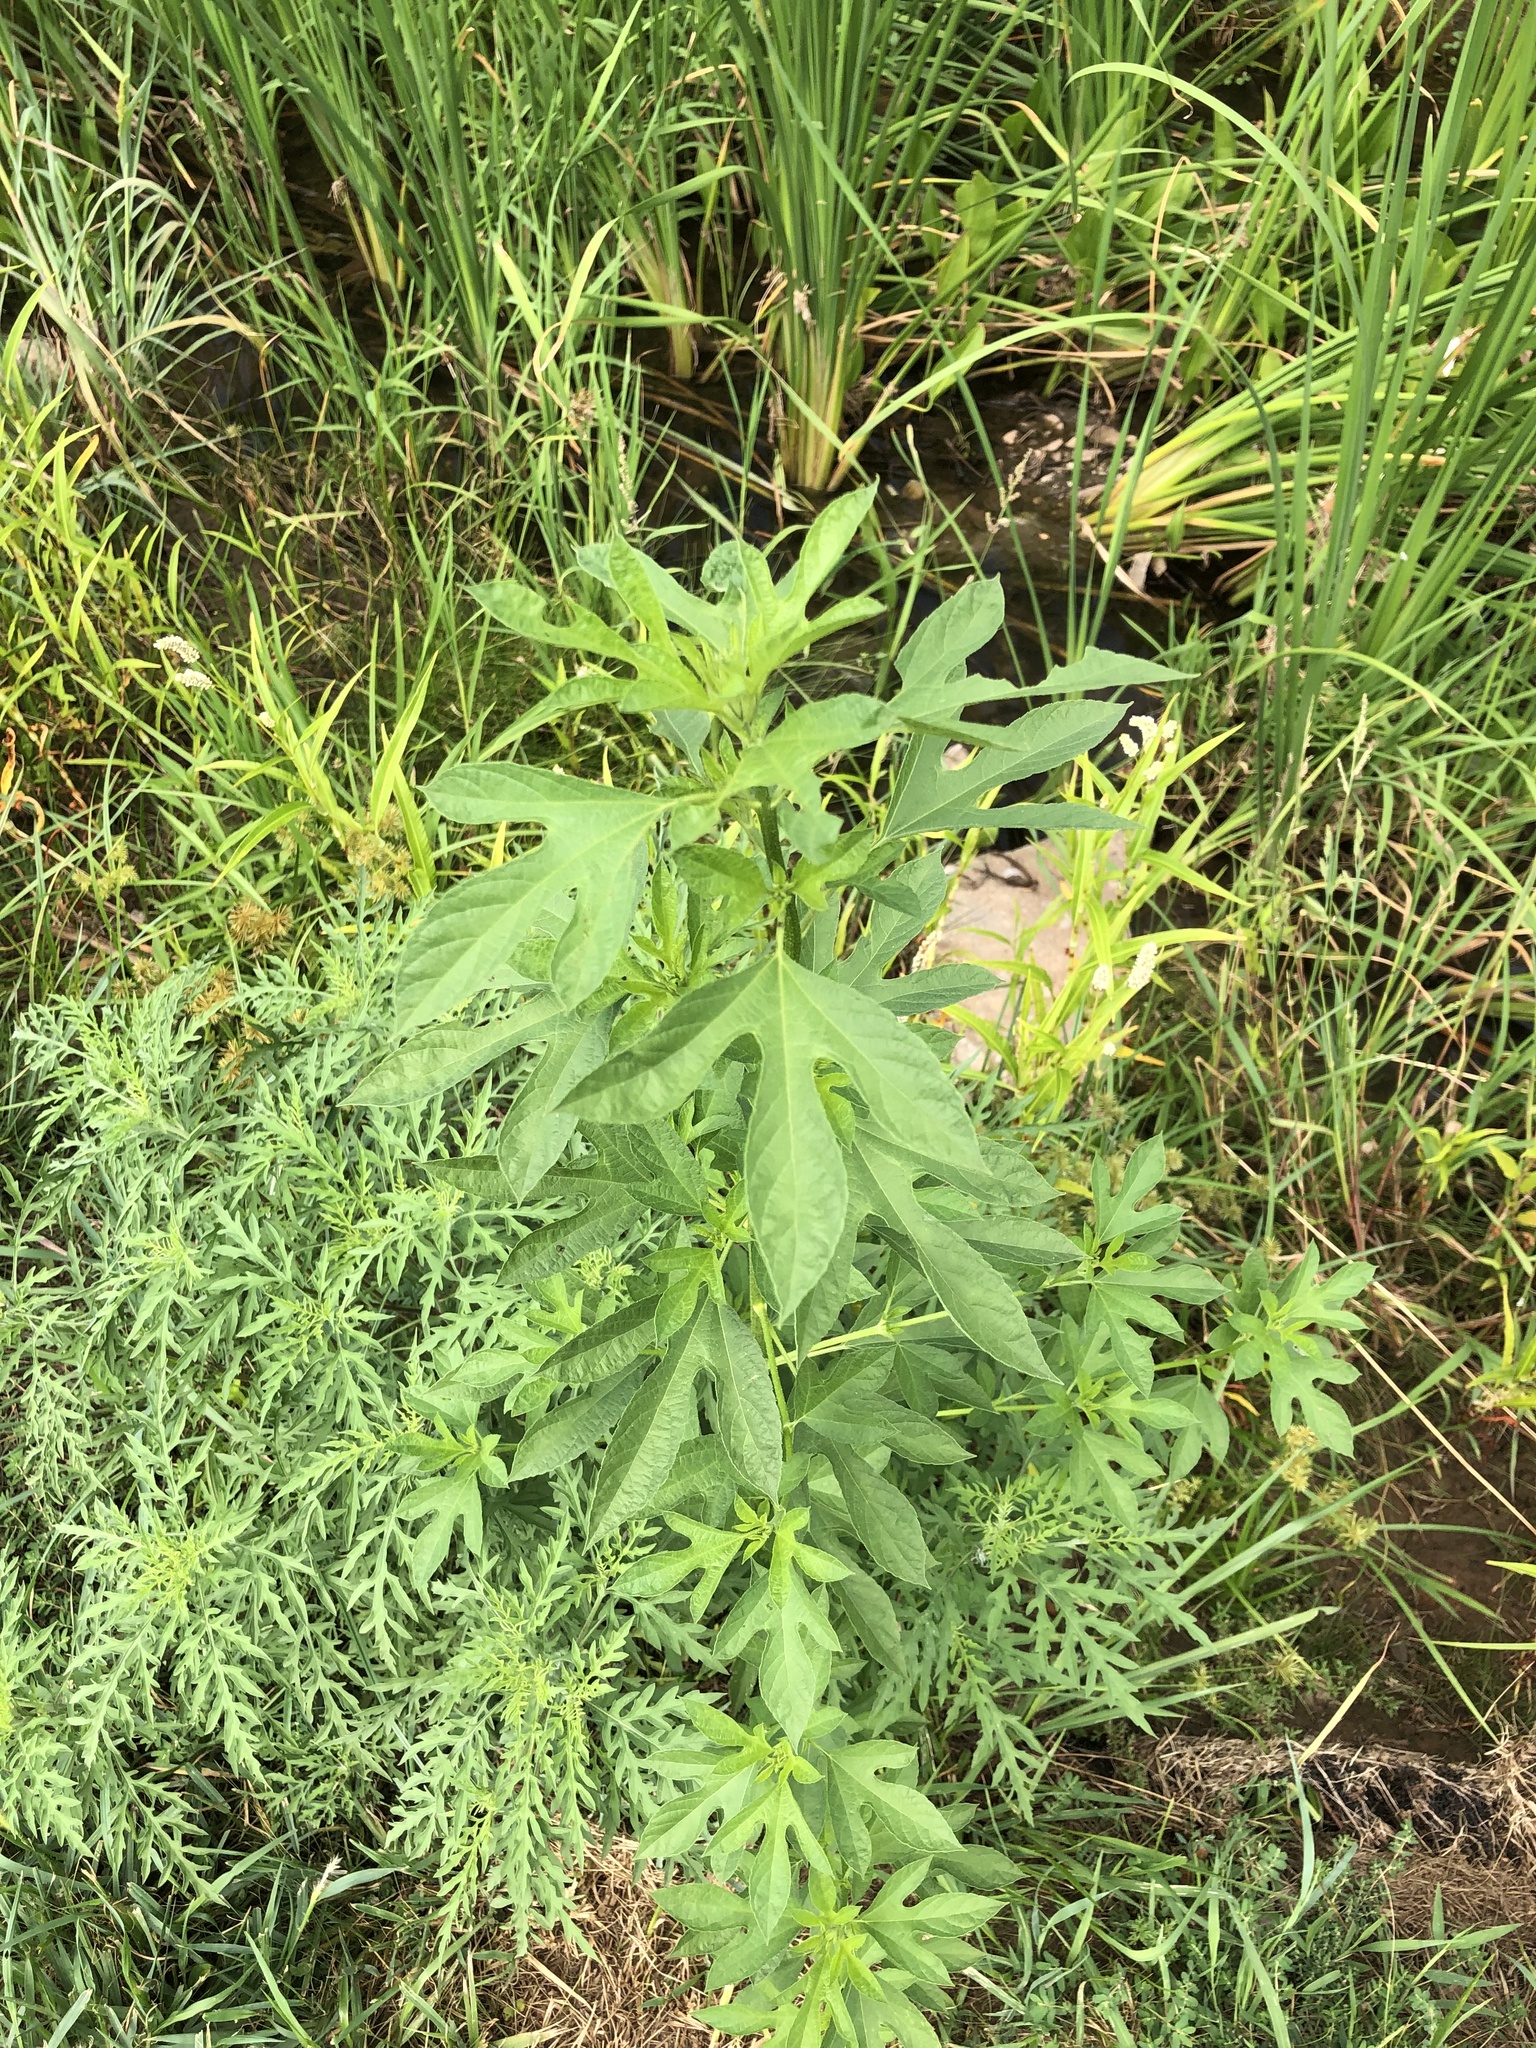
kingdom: Plantae
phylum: Tracheophyta
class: Magnoliopsida
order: Asterales
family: Asteraceae
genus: Ambrosia
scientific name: Ambrosia trifida
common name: Giant ragweed
